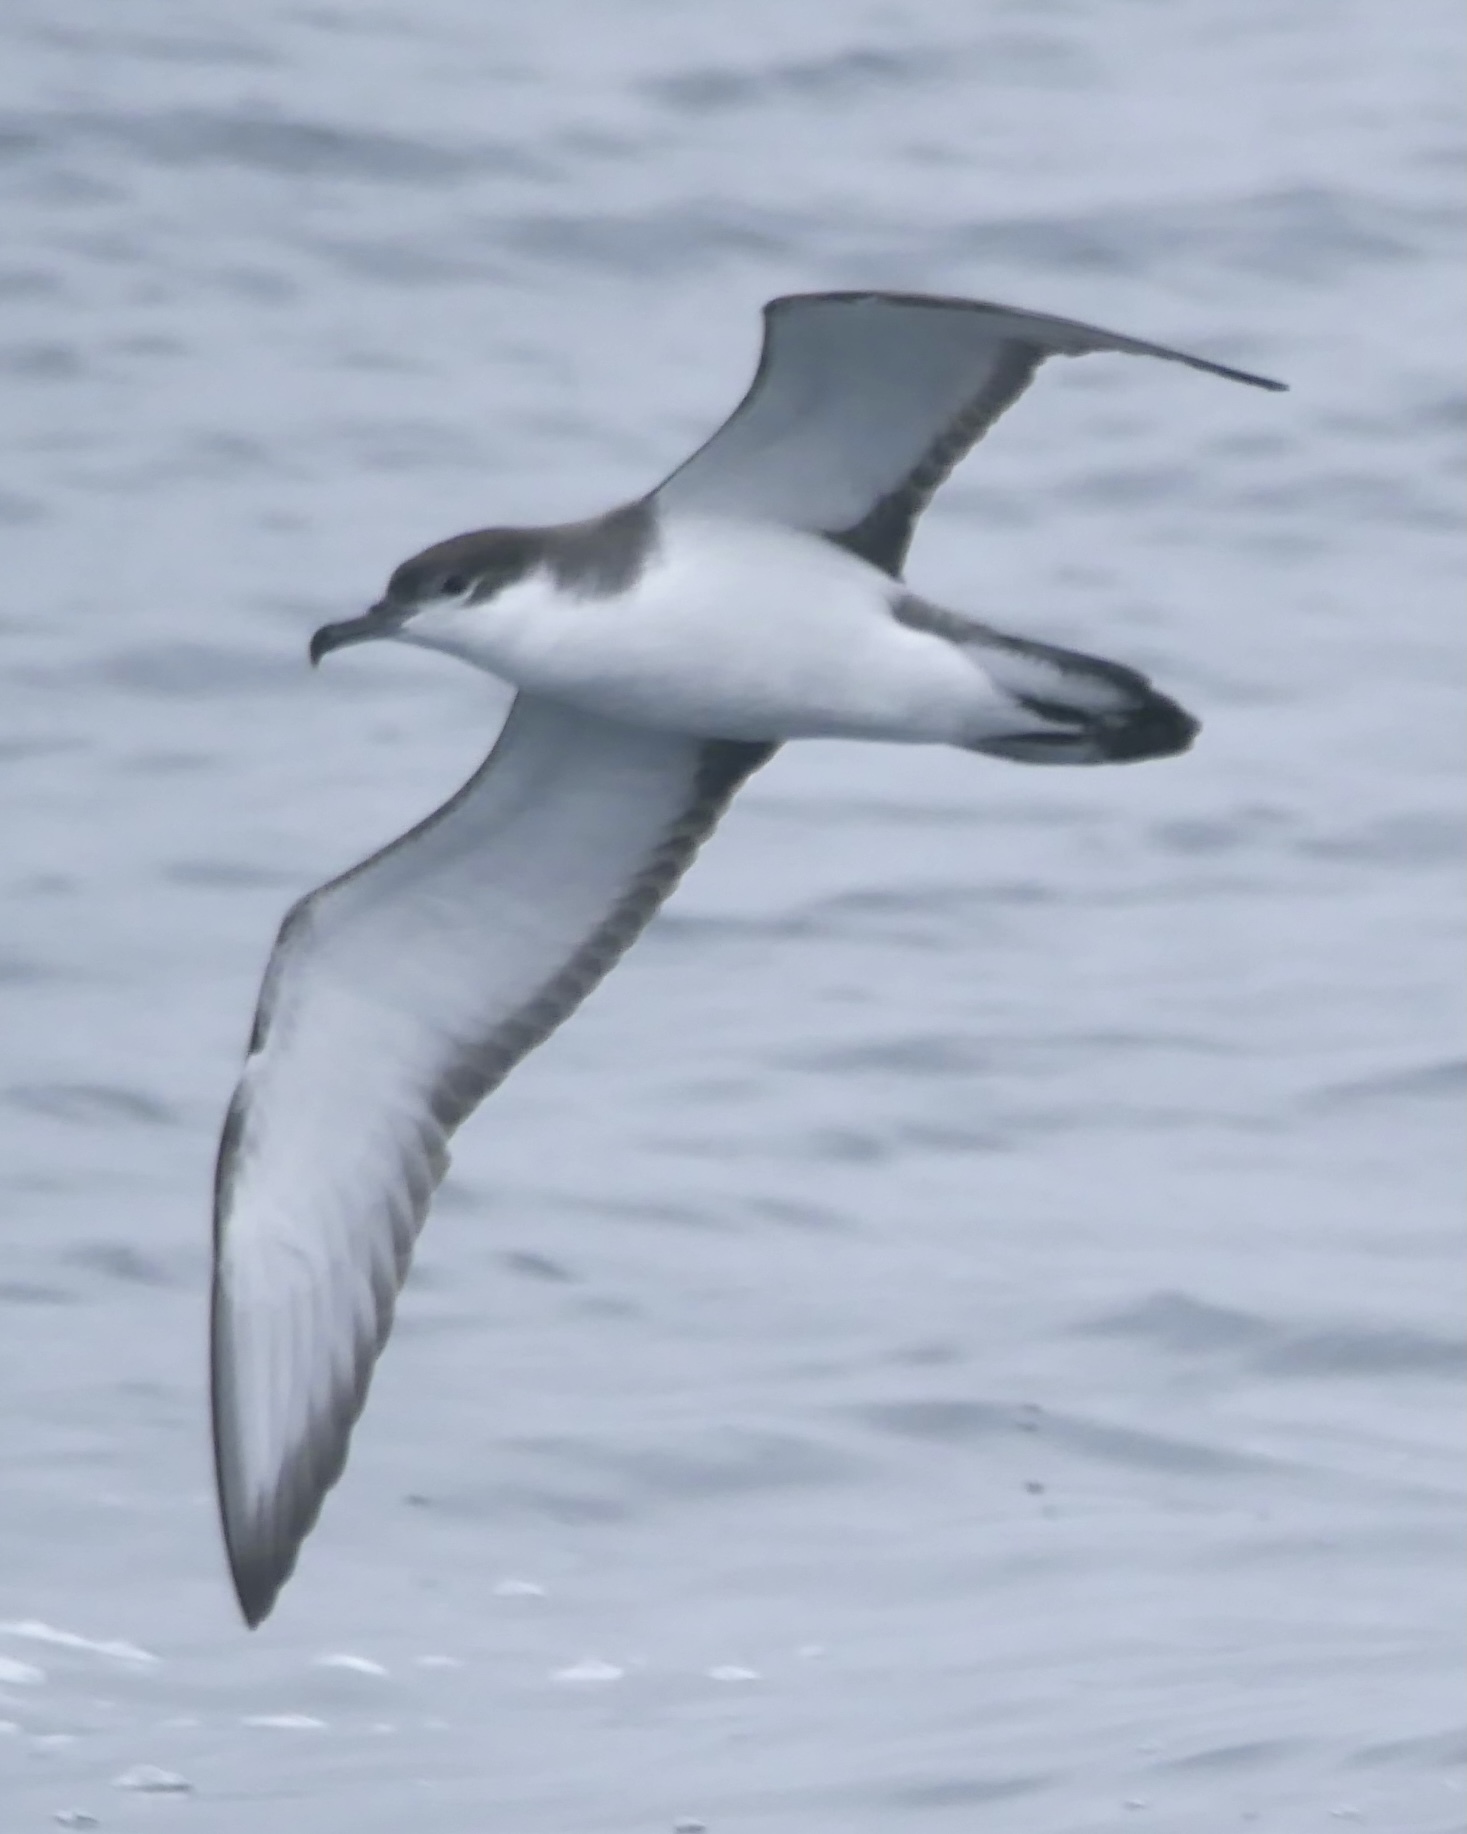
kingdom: Animalia
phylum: Chordata
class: Aves
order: Procellariiformes
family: Procellariidae
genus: Puffinus
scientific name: Puffinus bulleri
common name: Buller's shearwater
